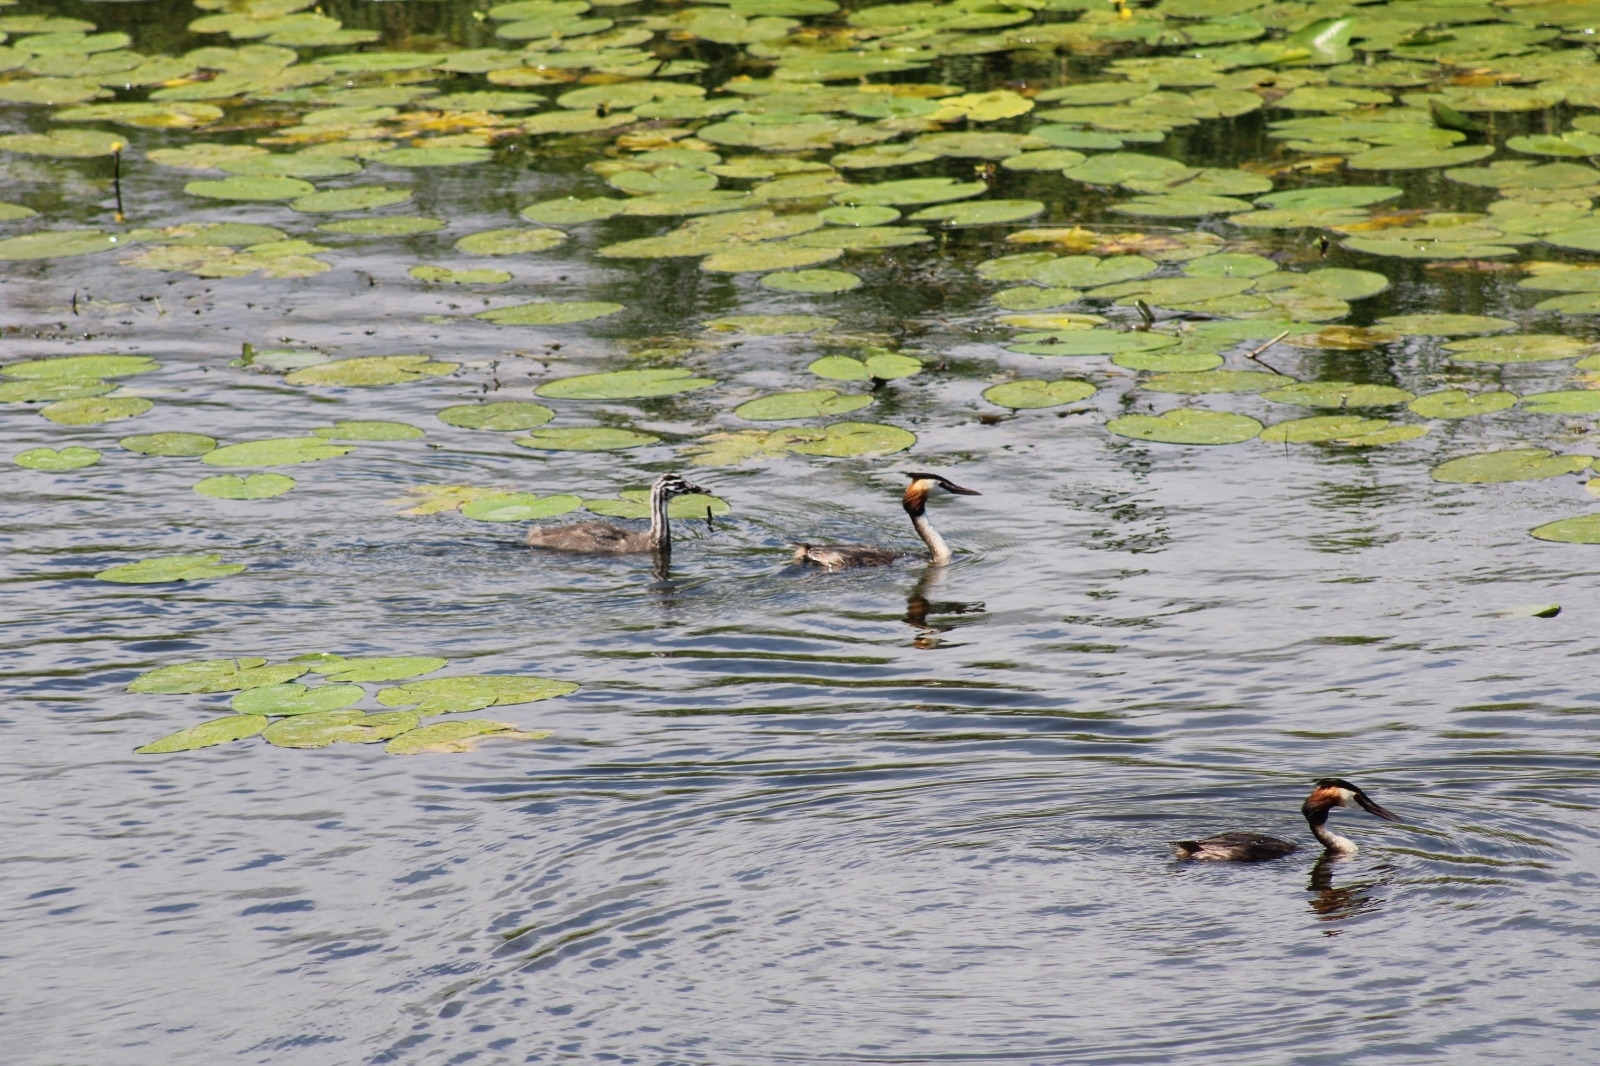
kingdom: Animalia
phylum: Chordata
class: Aves
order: Podicipediformes
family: Podicipedidae
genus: Podiceps
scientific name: Podiceps cristatus
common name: Great crested grebe
